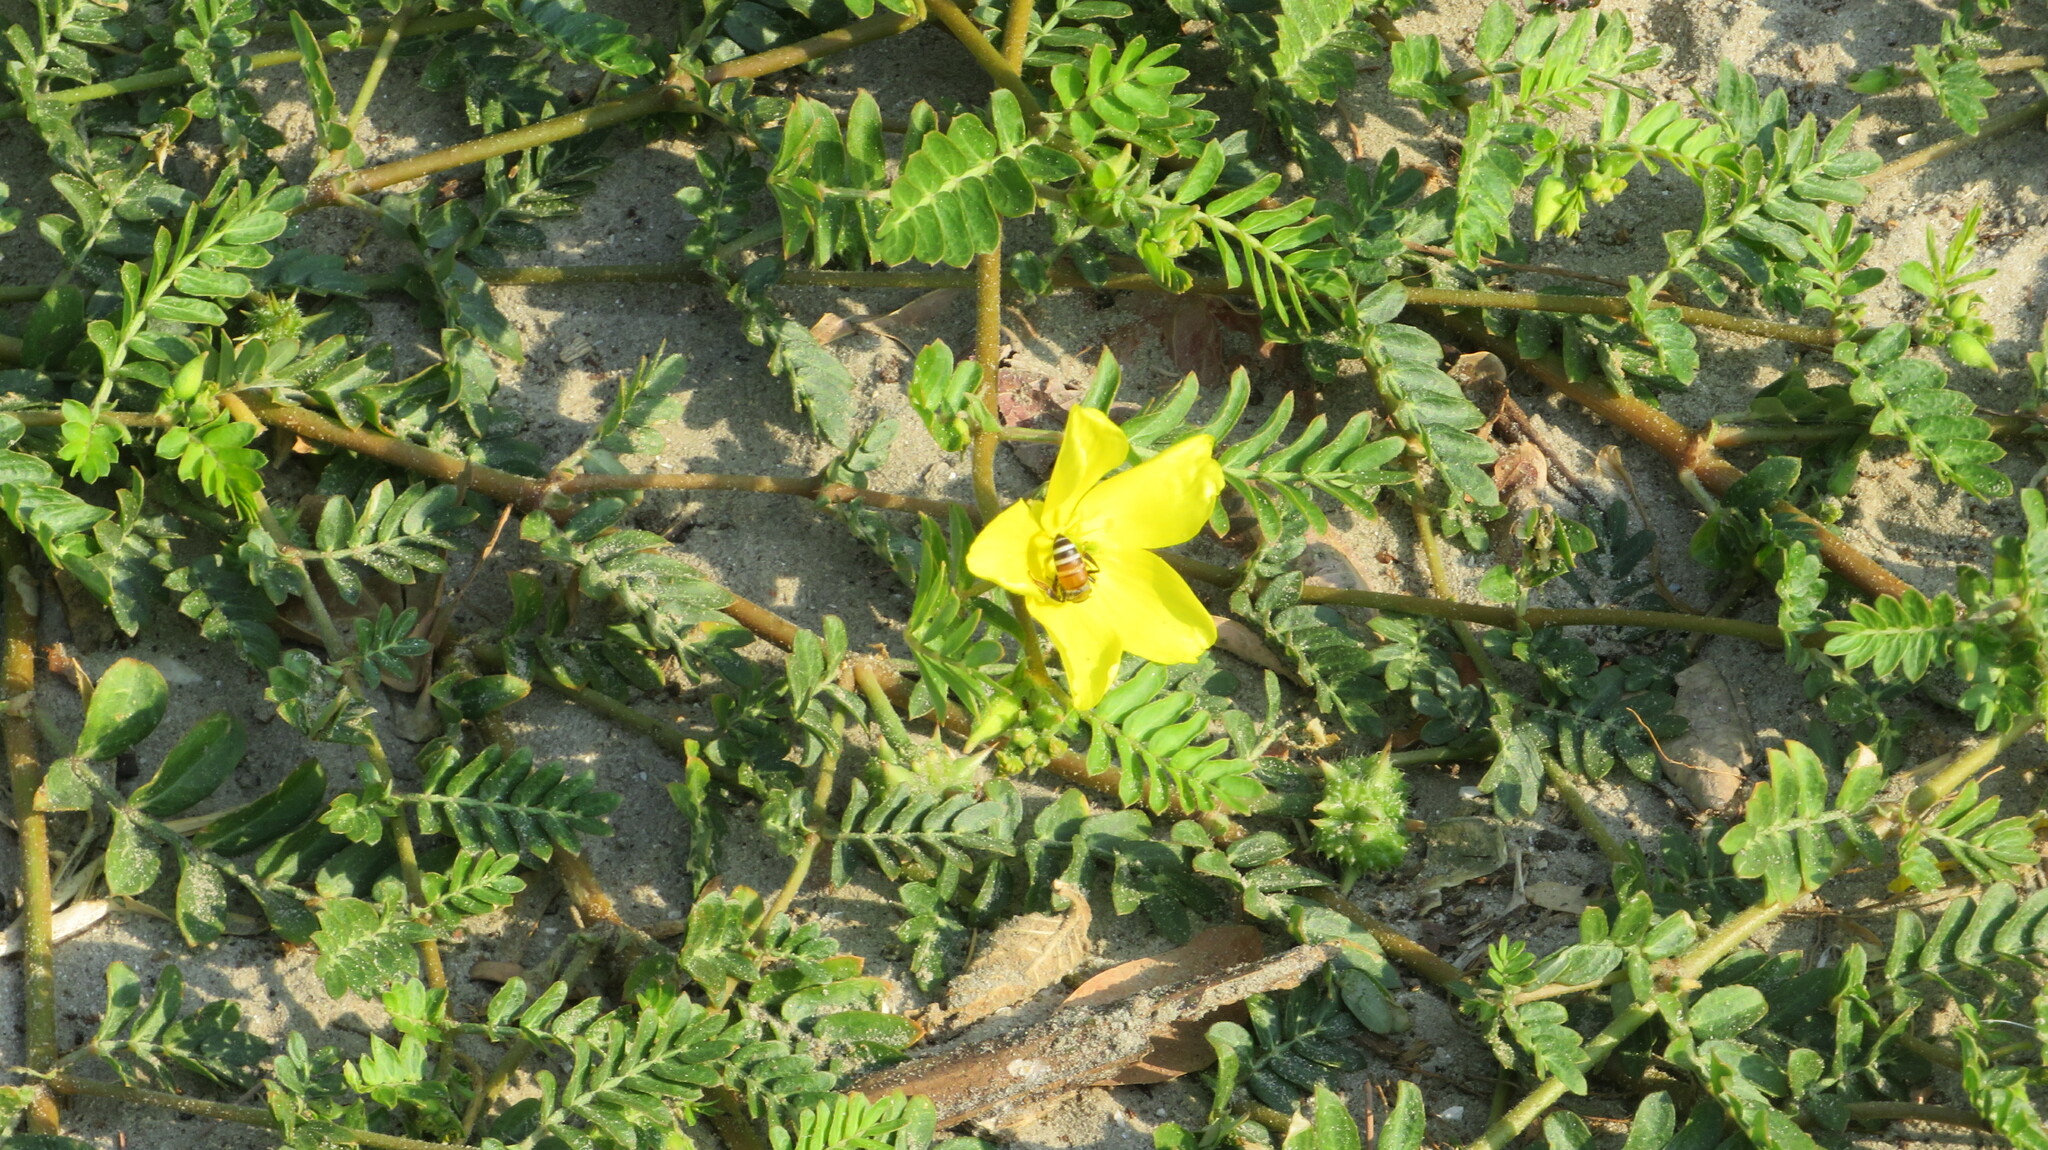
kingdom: Animalia
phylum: Arthropoda
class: Insecta
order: Hymenoptera
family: Apidae
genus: Apis
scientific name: Apis florea
